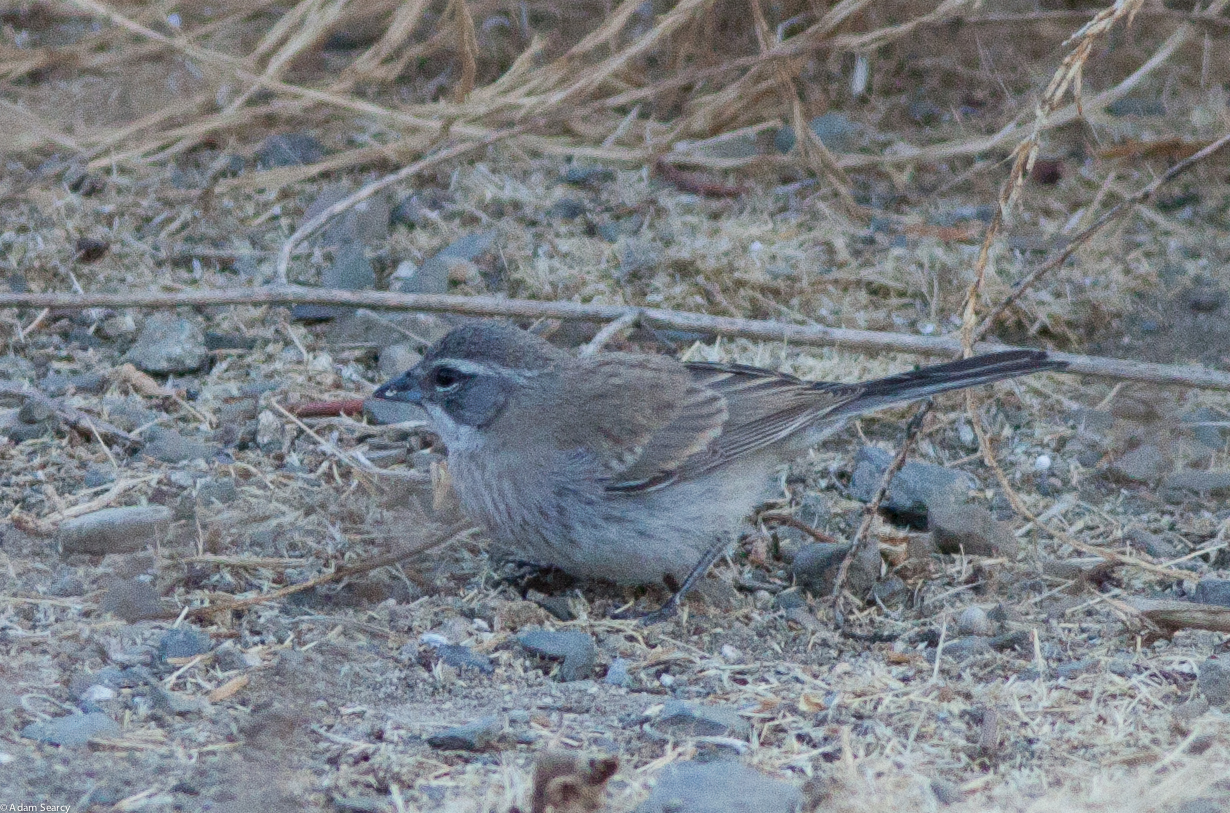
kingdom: Animalia
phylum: Chordata
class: Aves
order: Passeriformes
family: Passerellidae
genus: Amphispiza
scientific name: Amphispiza bilineata
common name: Black-throated sparrow
